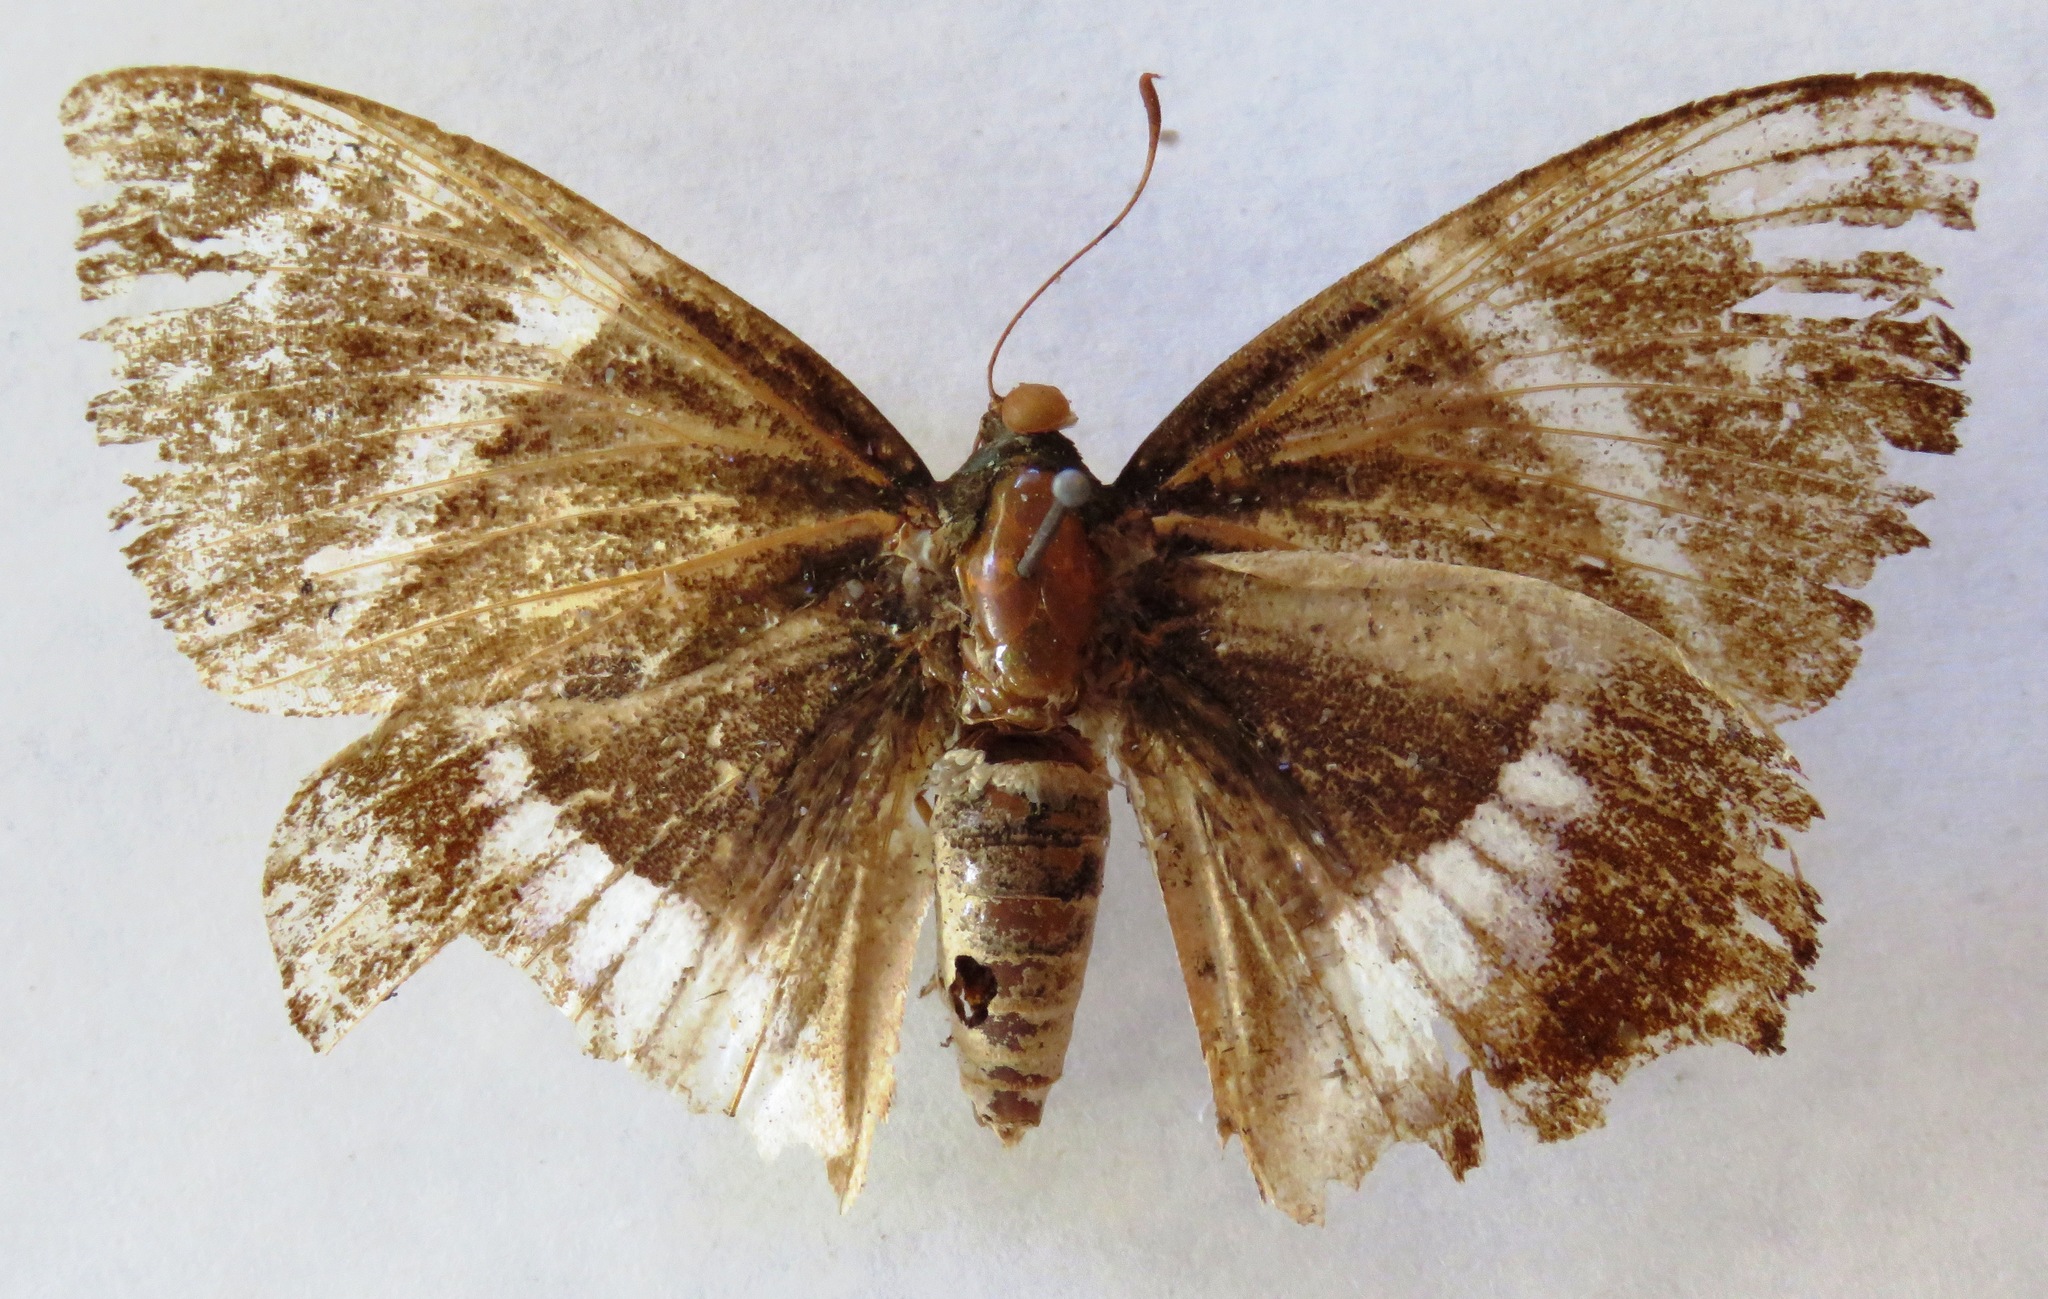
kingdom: Animalia
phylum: Arthropoda
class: Insecta
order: Lepidoptera
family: Castniidae
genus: Castniomera
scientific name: Castniomera atymnius
